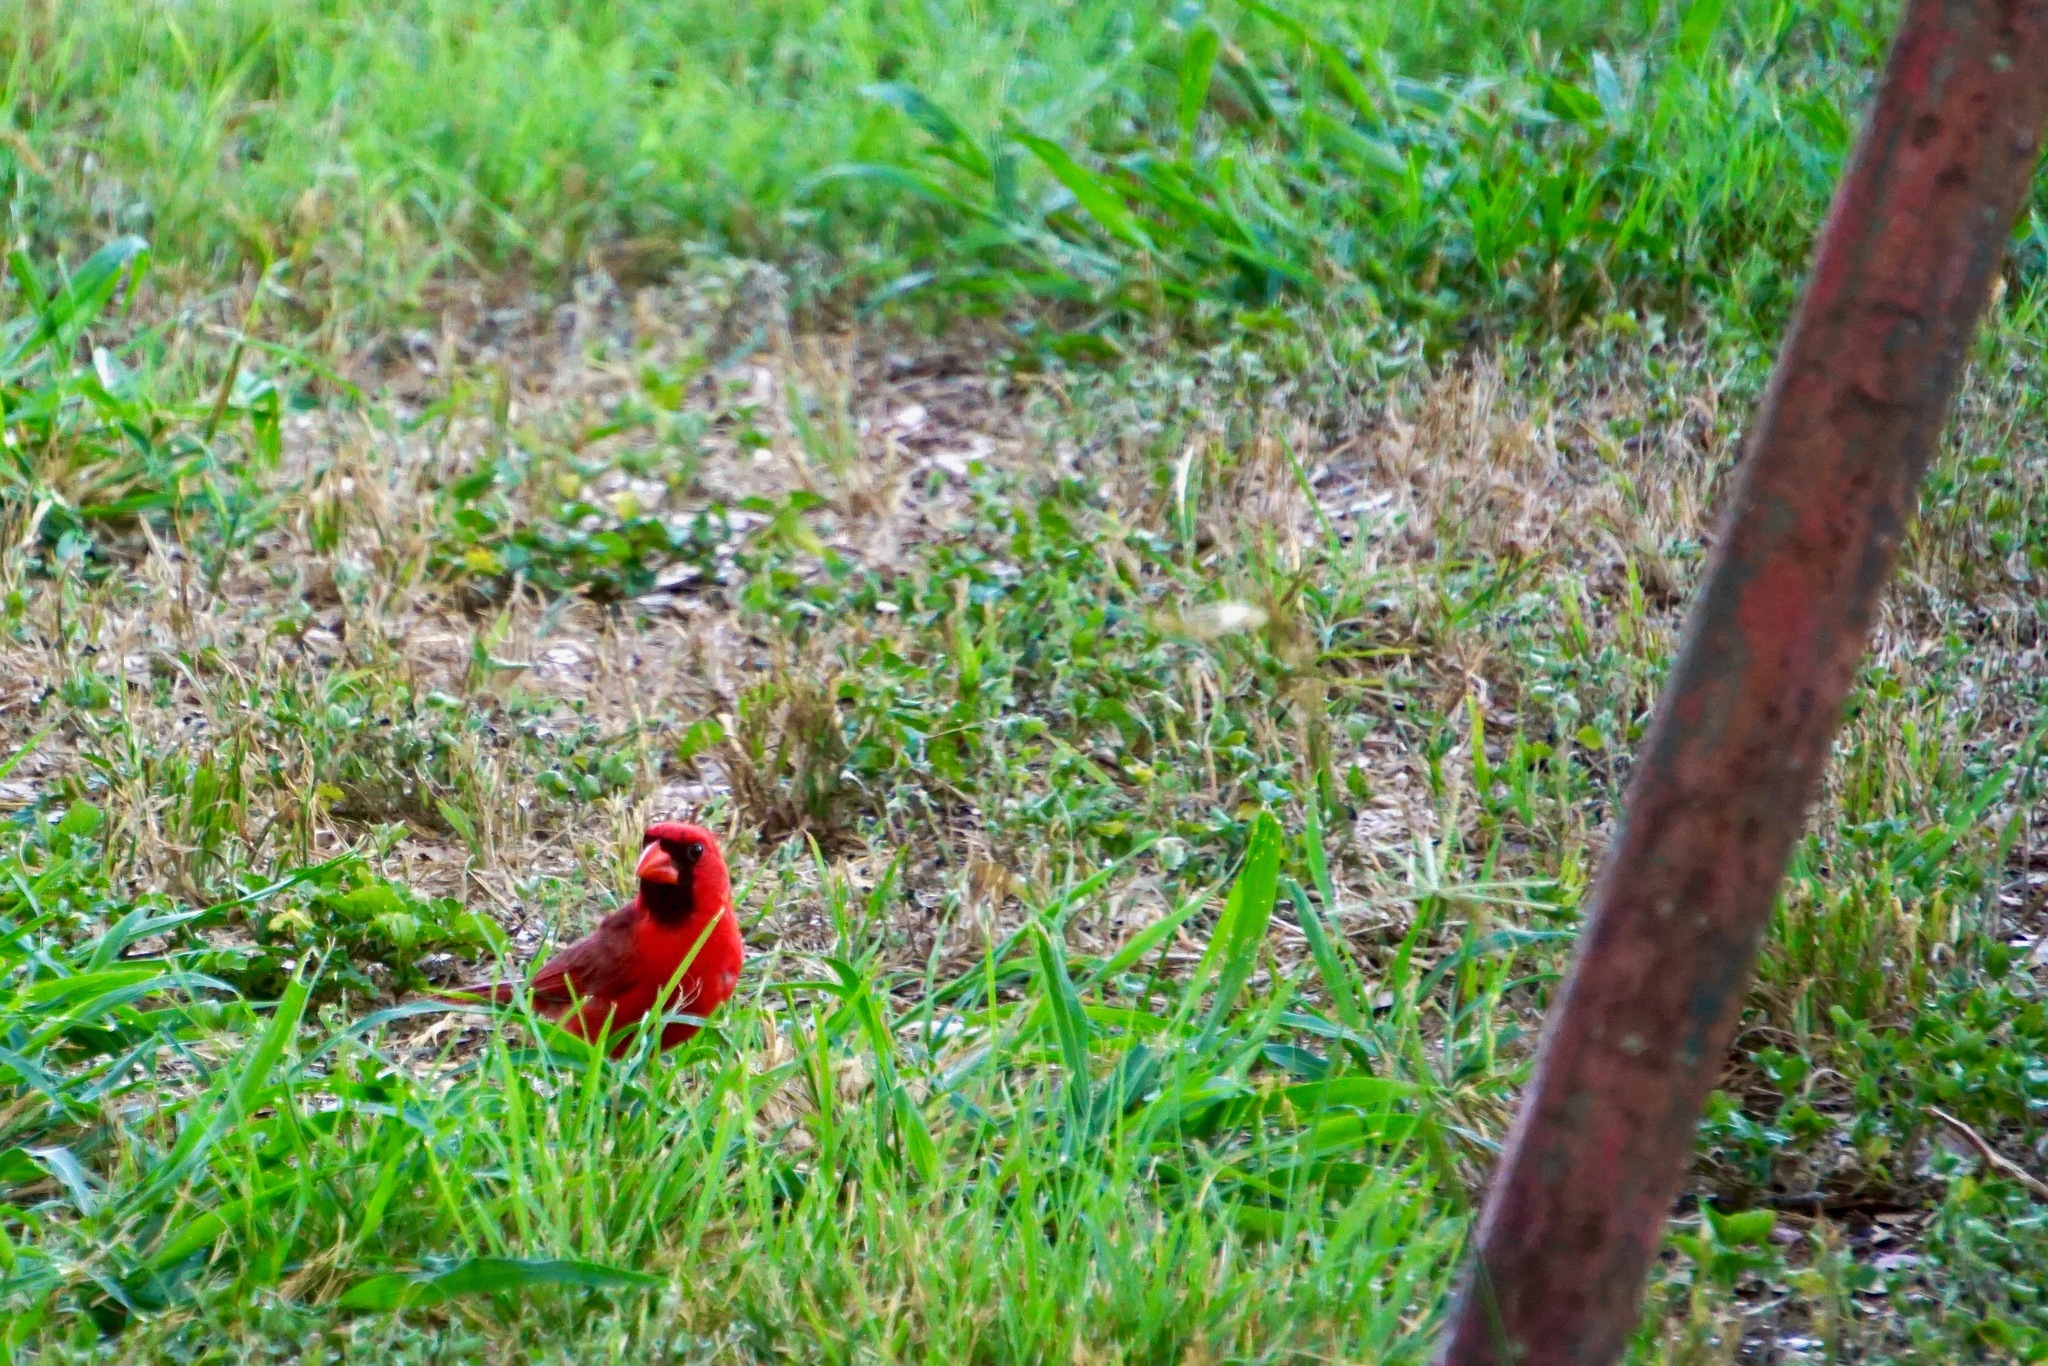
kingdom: Animalia
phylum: Chordata
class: Aves
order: Passeriformes
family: Cardinalidae
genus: Cardinalis
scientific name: Cardinalis cardinalis
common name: Northern cardinal
